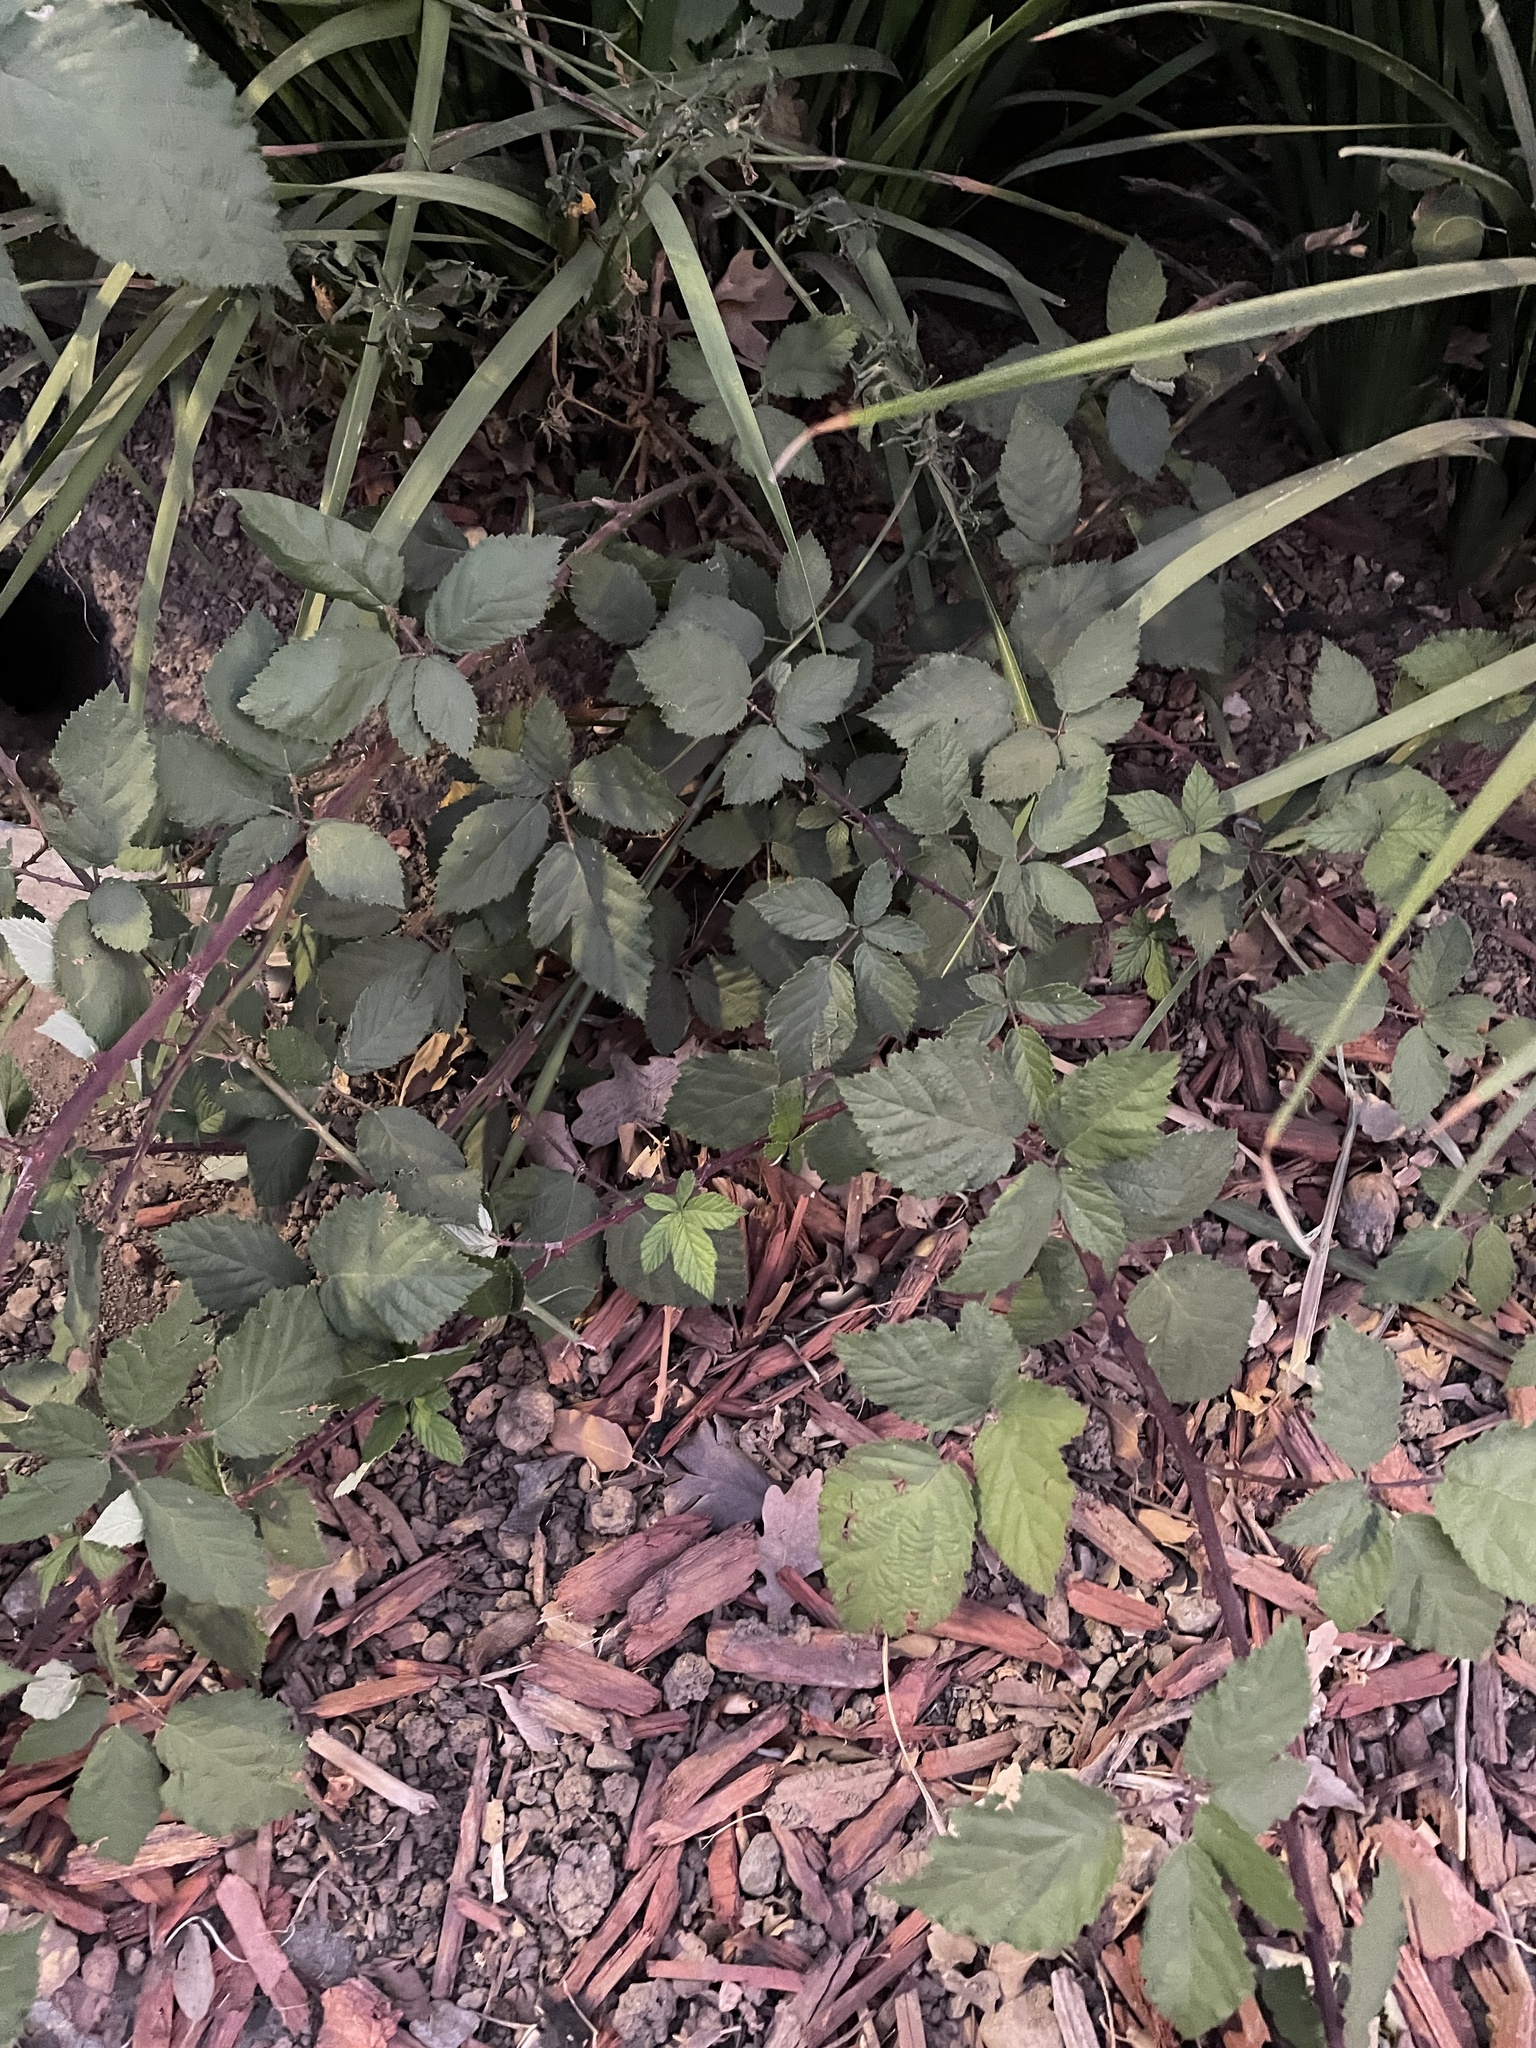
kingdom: Plantae
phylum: Tracheophyta
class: Magnoliopsida
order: Rosales
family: Rosaceae
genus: Rubus
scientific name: Rubus armeniacus
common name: Himalayan blackberry
